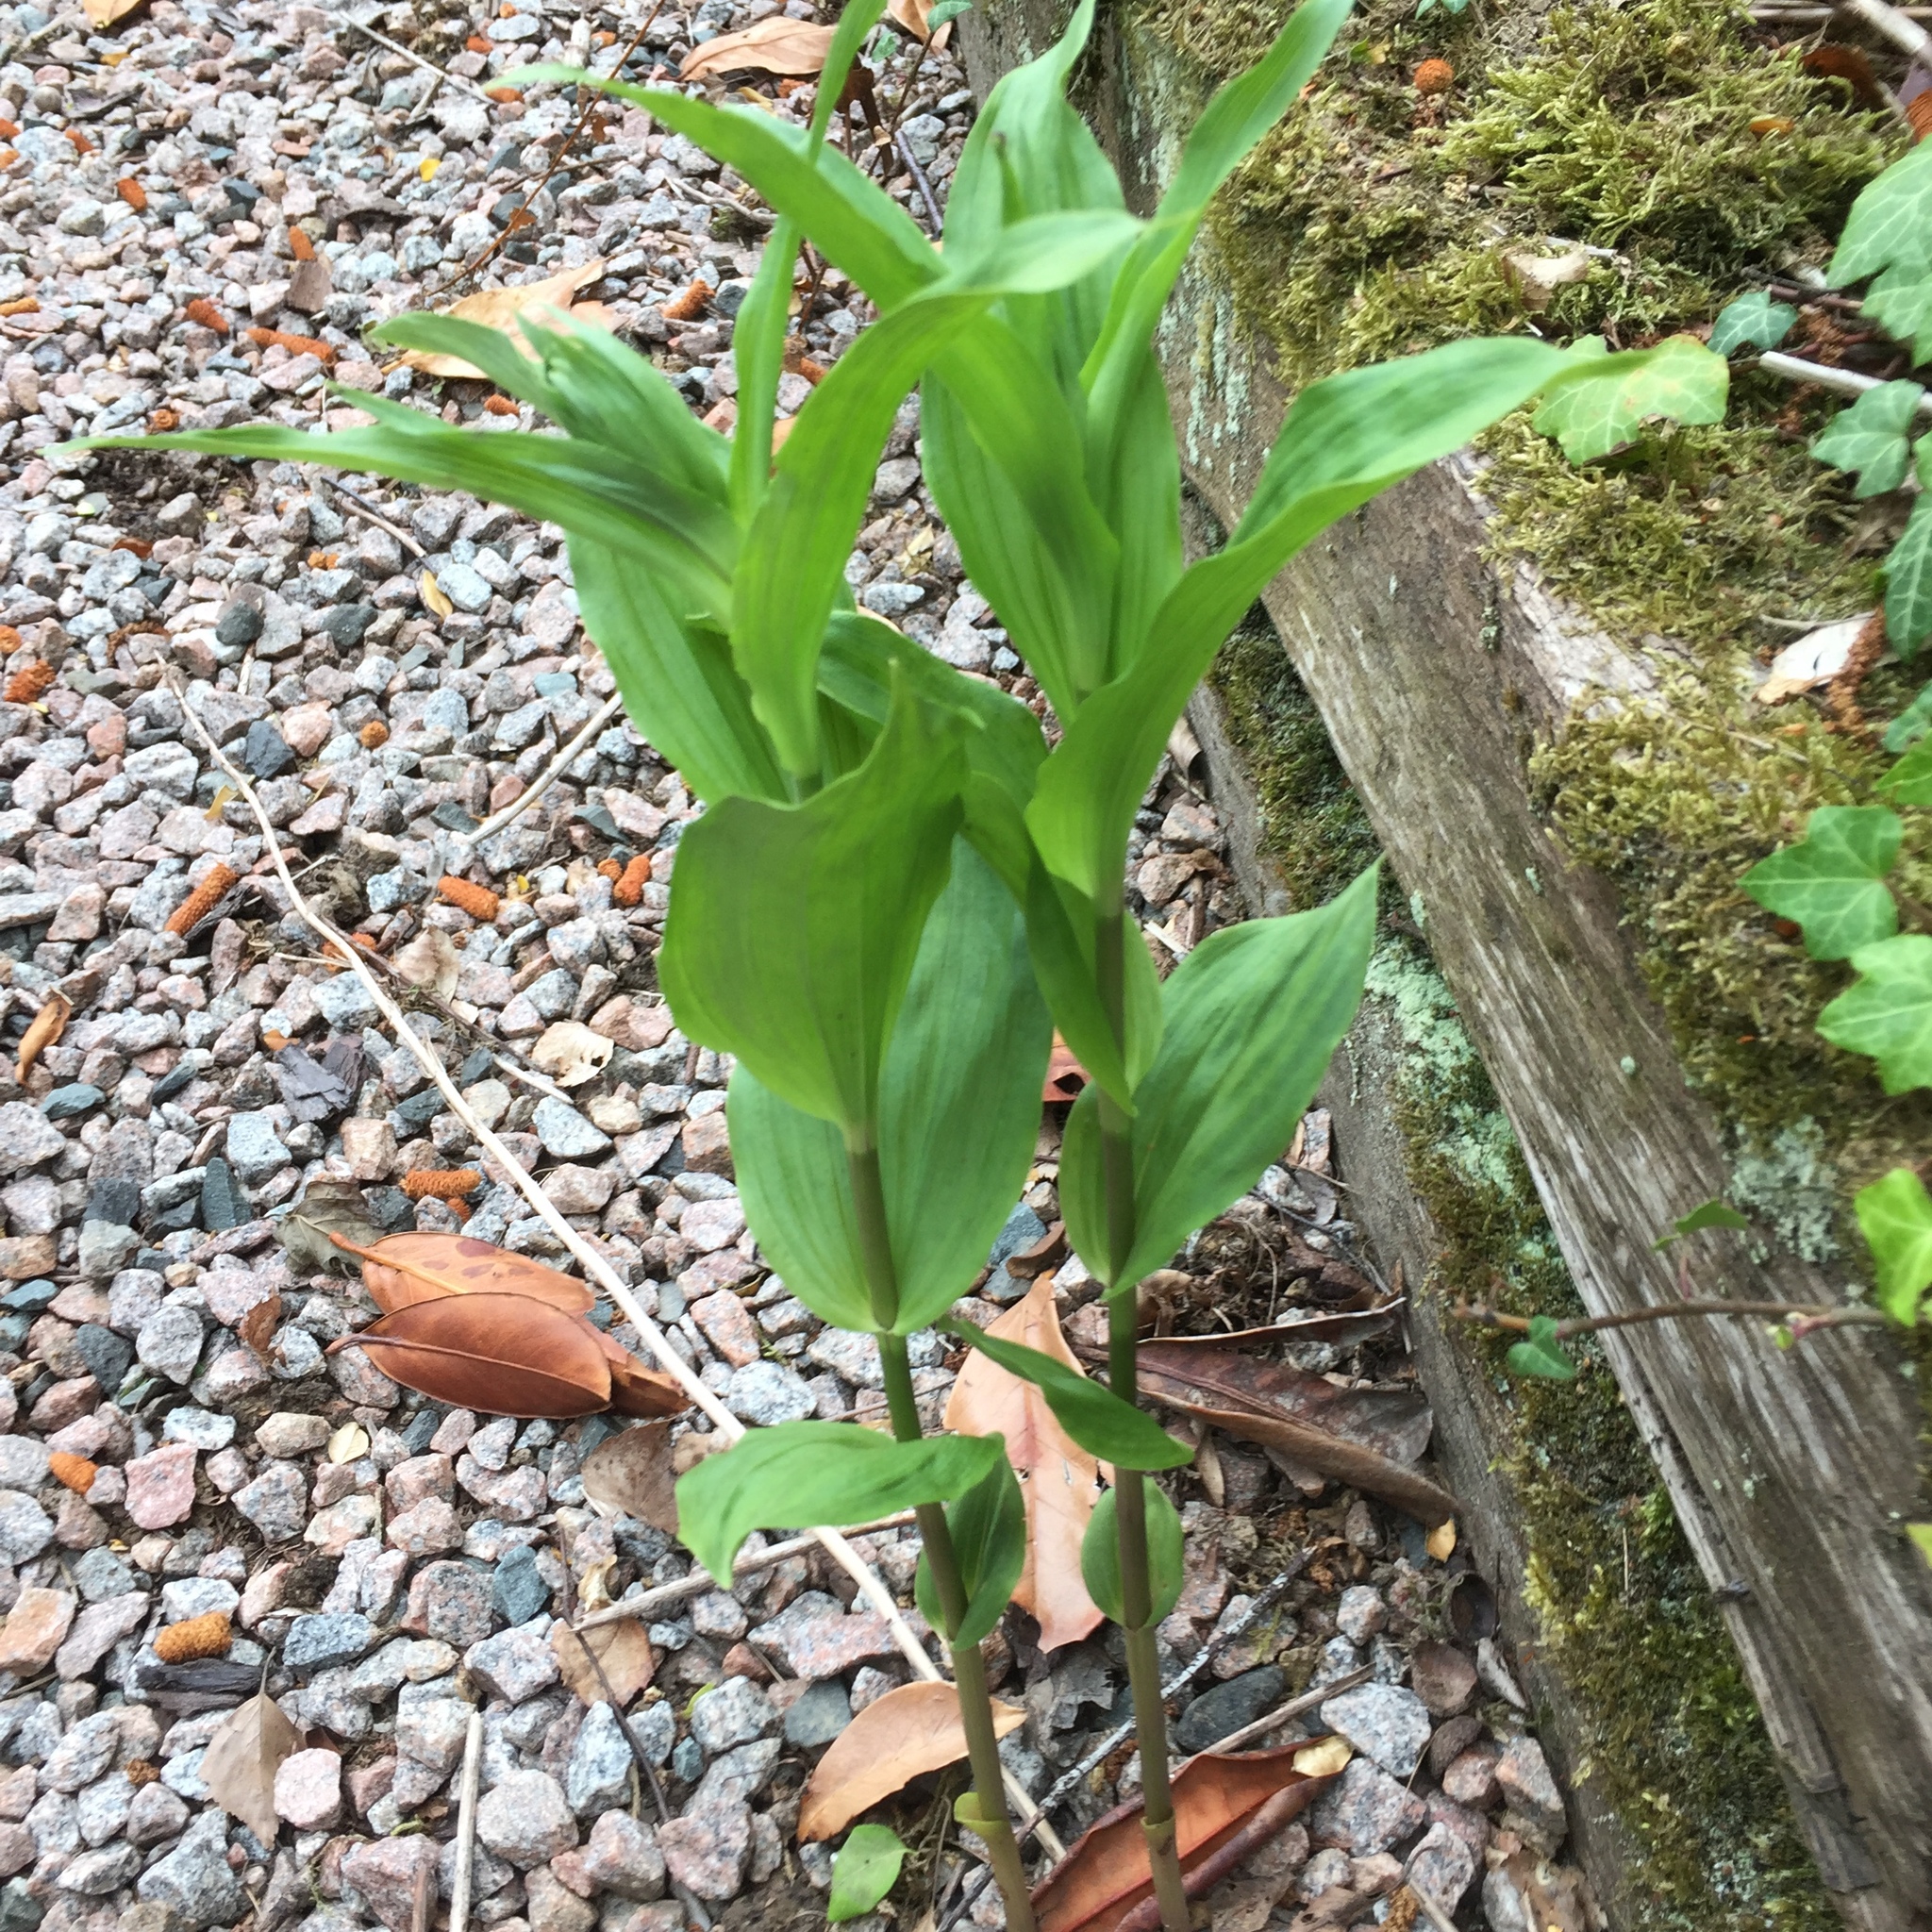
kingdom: Plantae
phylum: Tracheophyta
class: Liliopsida
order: Asparagales
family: Orchidaceae
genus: Epipactis
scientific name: Epipactis helleborine
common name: Broad-leaved helleborine
